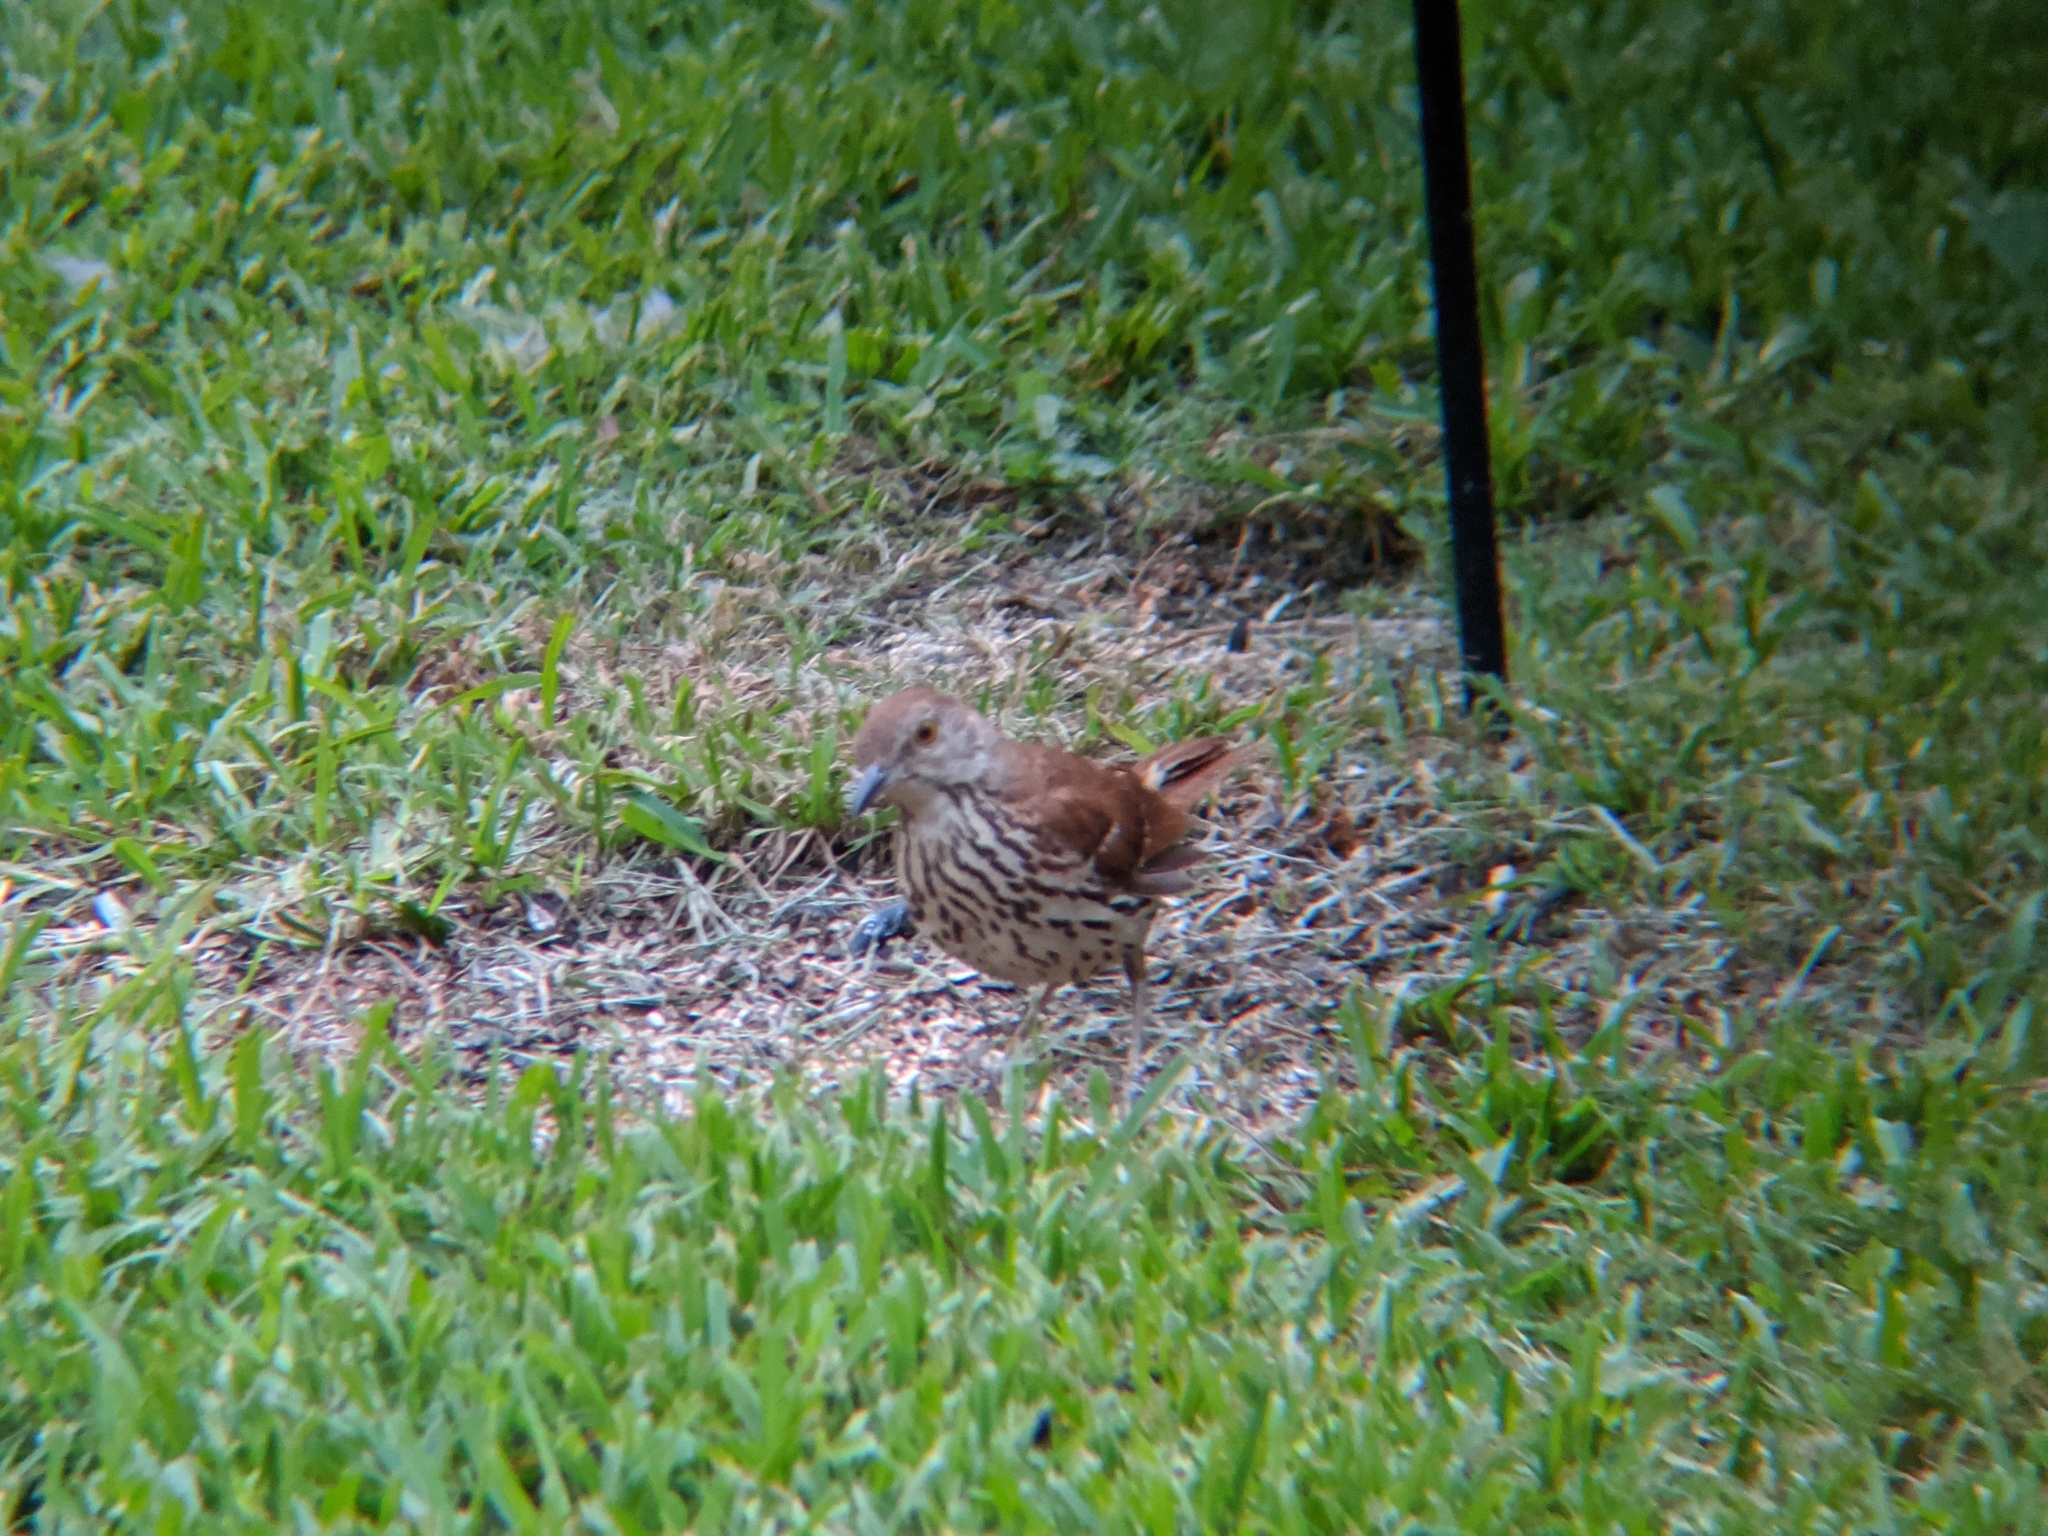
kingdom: Animalia
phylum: Chordata
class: Aves
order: Passeriformes
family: Mimidae
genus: Toxostoma
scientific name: Toxostoma rufum
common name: Brown thrasher
